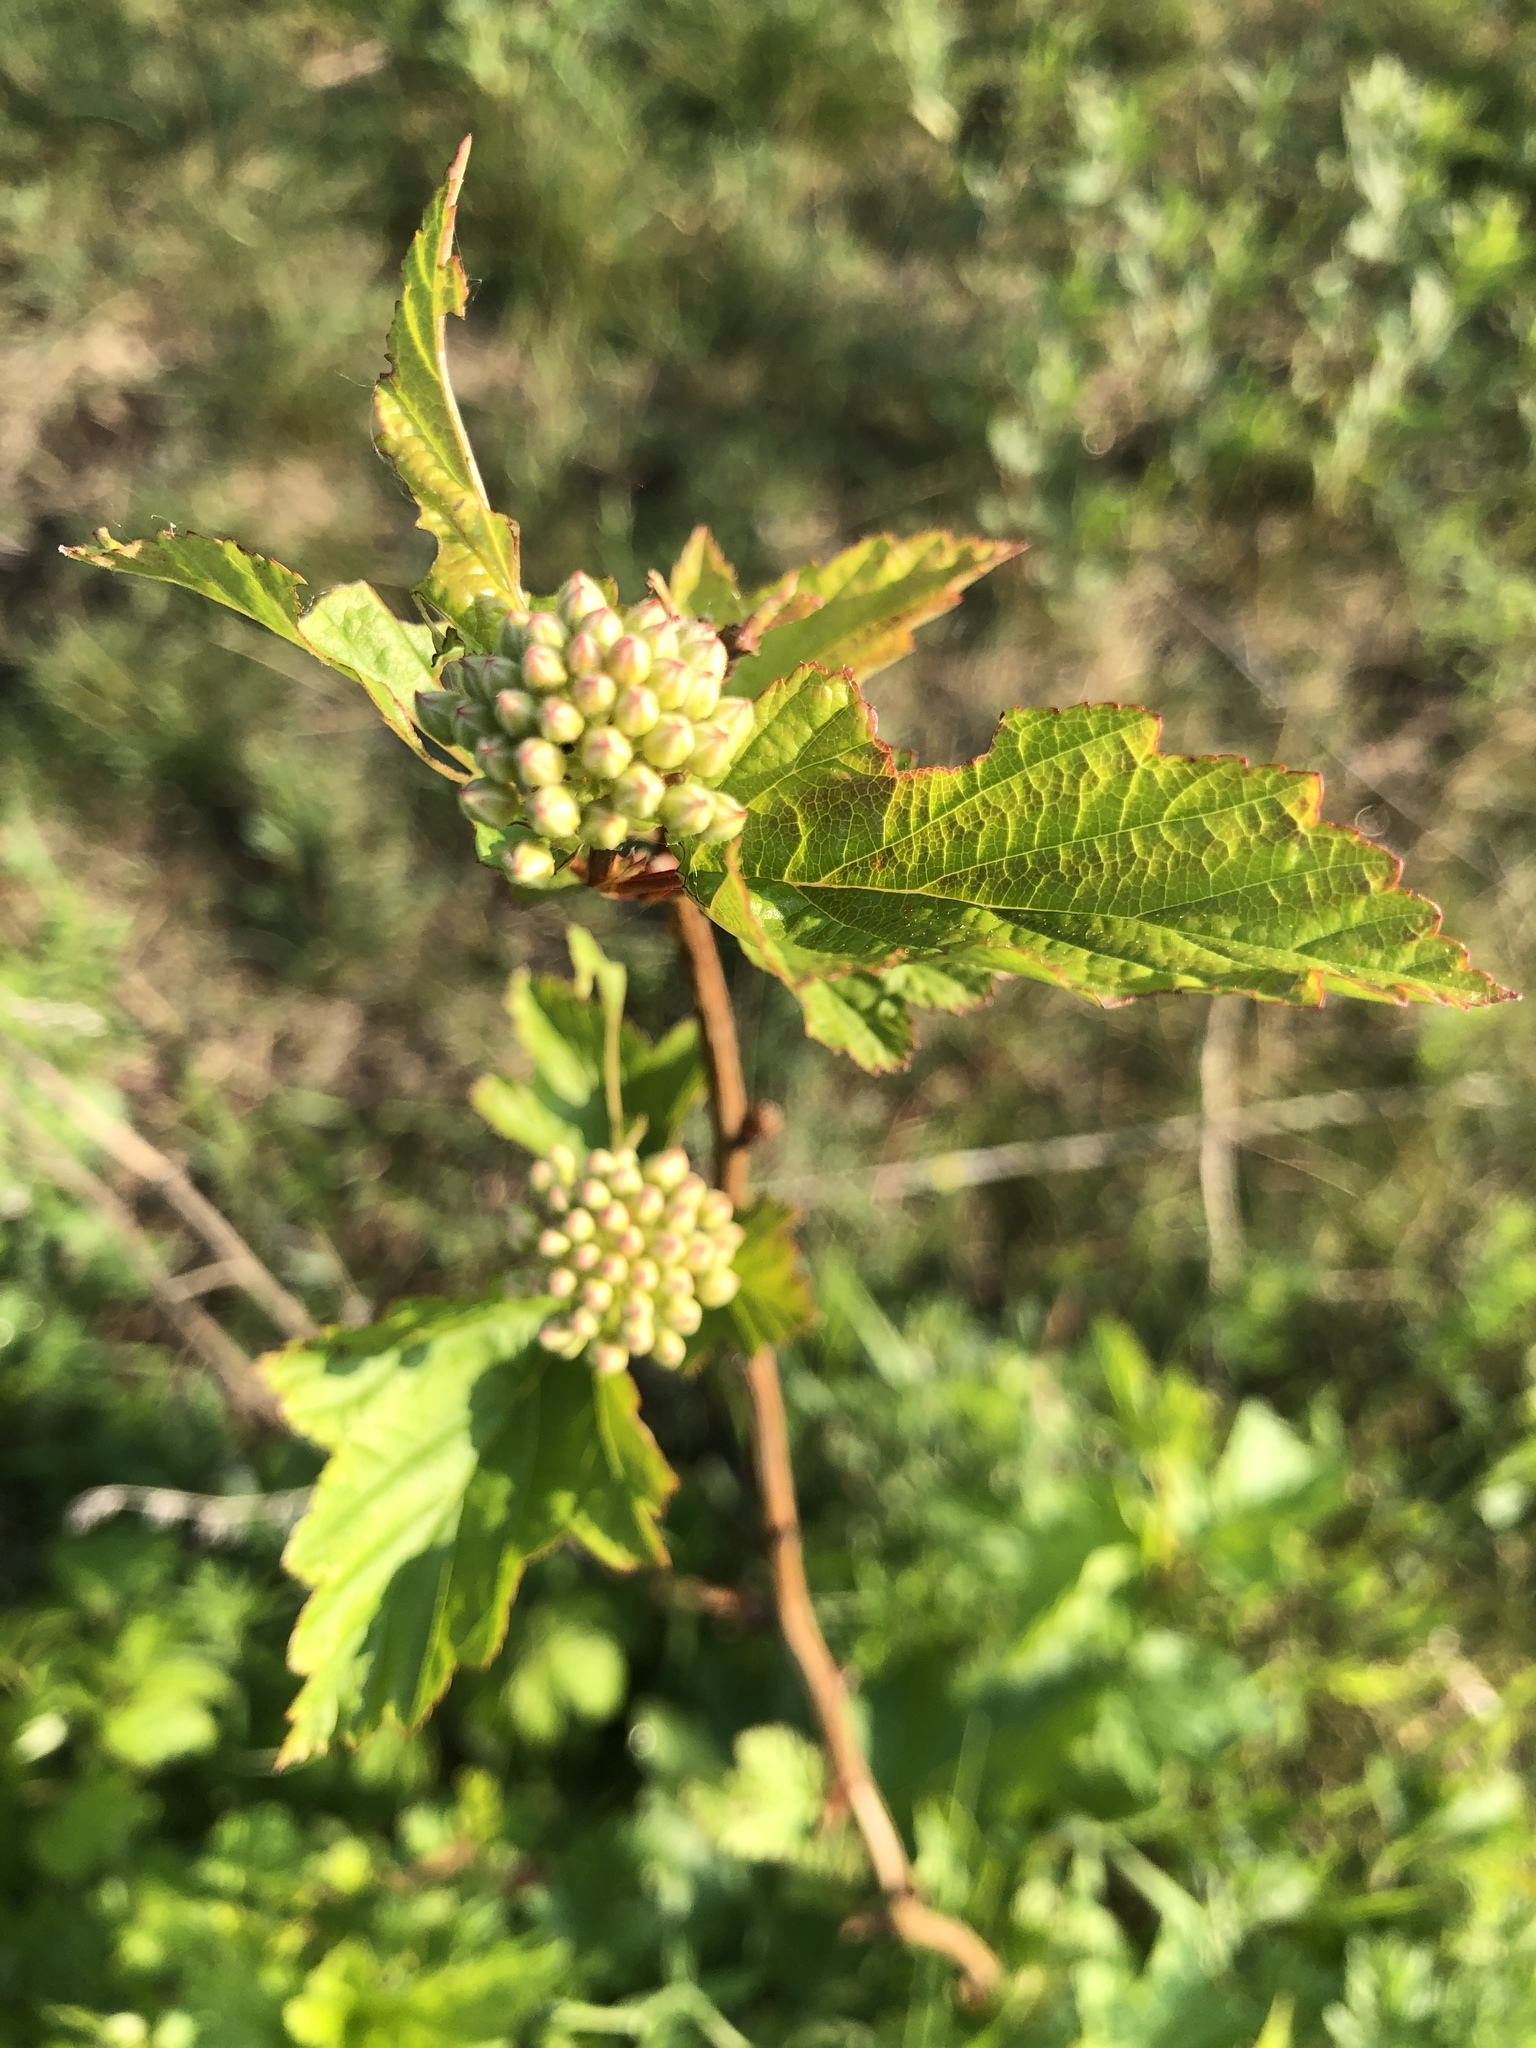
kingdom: Plantae
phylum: Tracheophyta
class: Magnoliopsida
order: Rosales
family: Rosaceae
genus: Physocarpus
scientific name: Physocarpus opulifolius
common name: Ninebark
